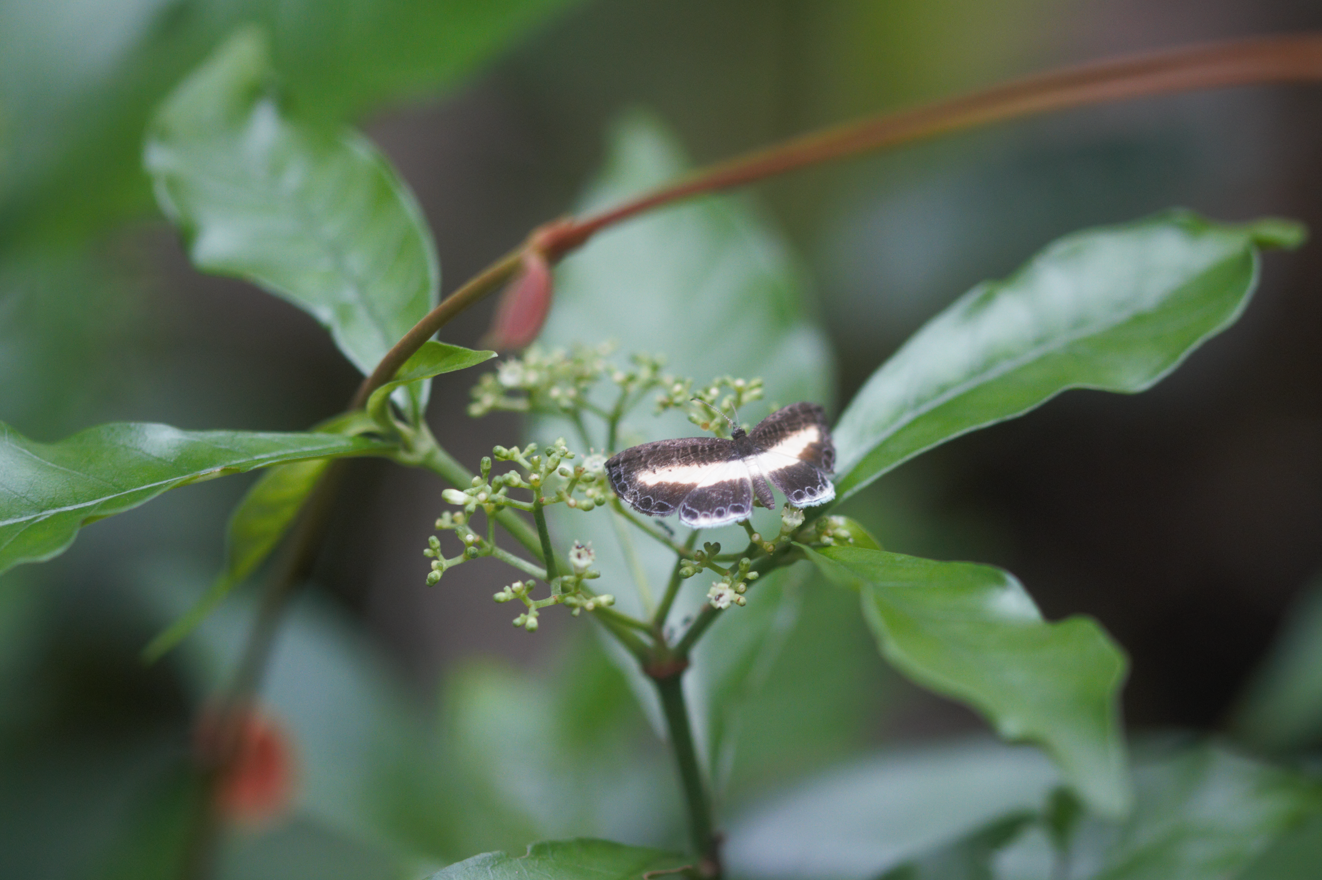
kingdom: Animalia
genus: Nymphidium
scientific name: Nymphidium
